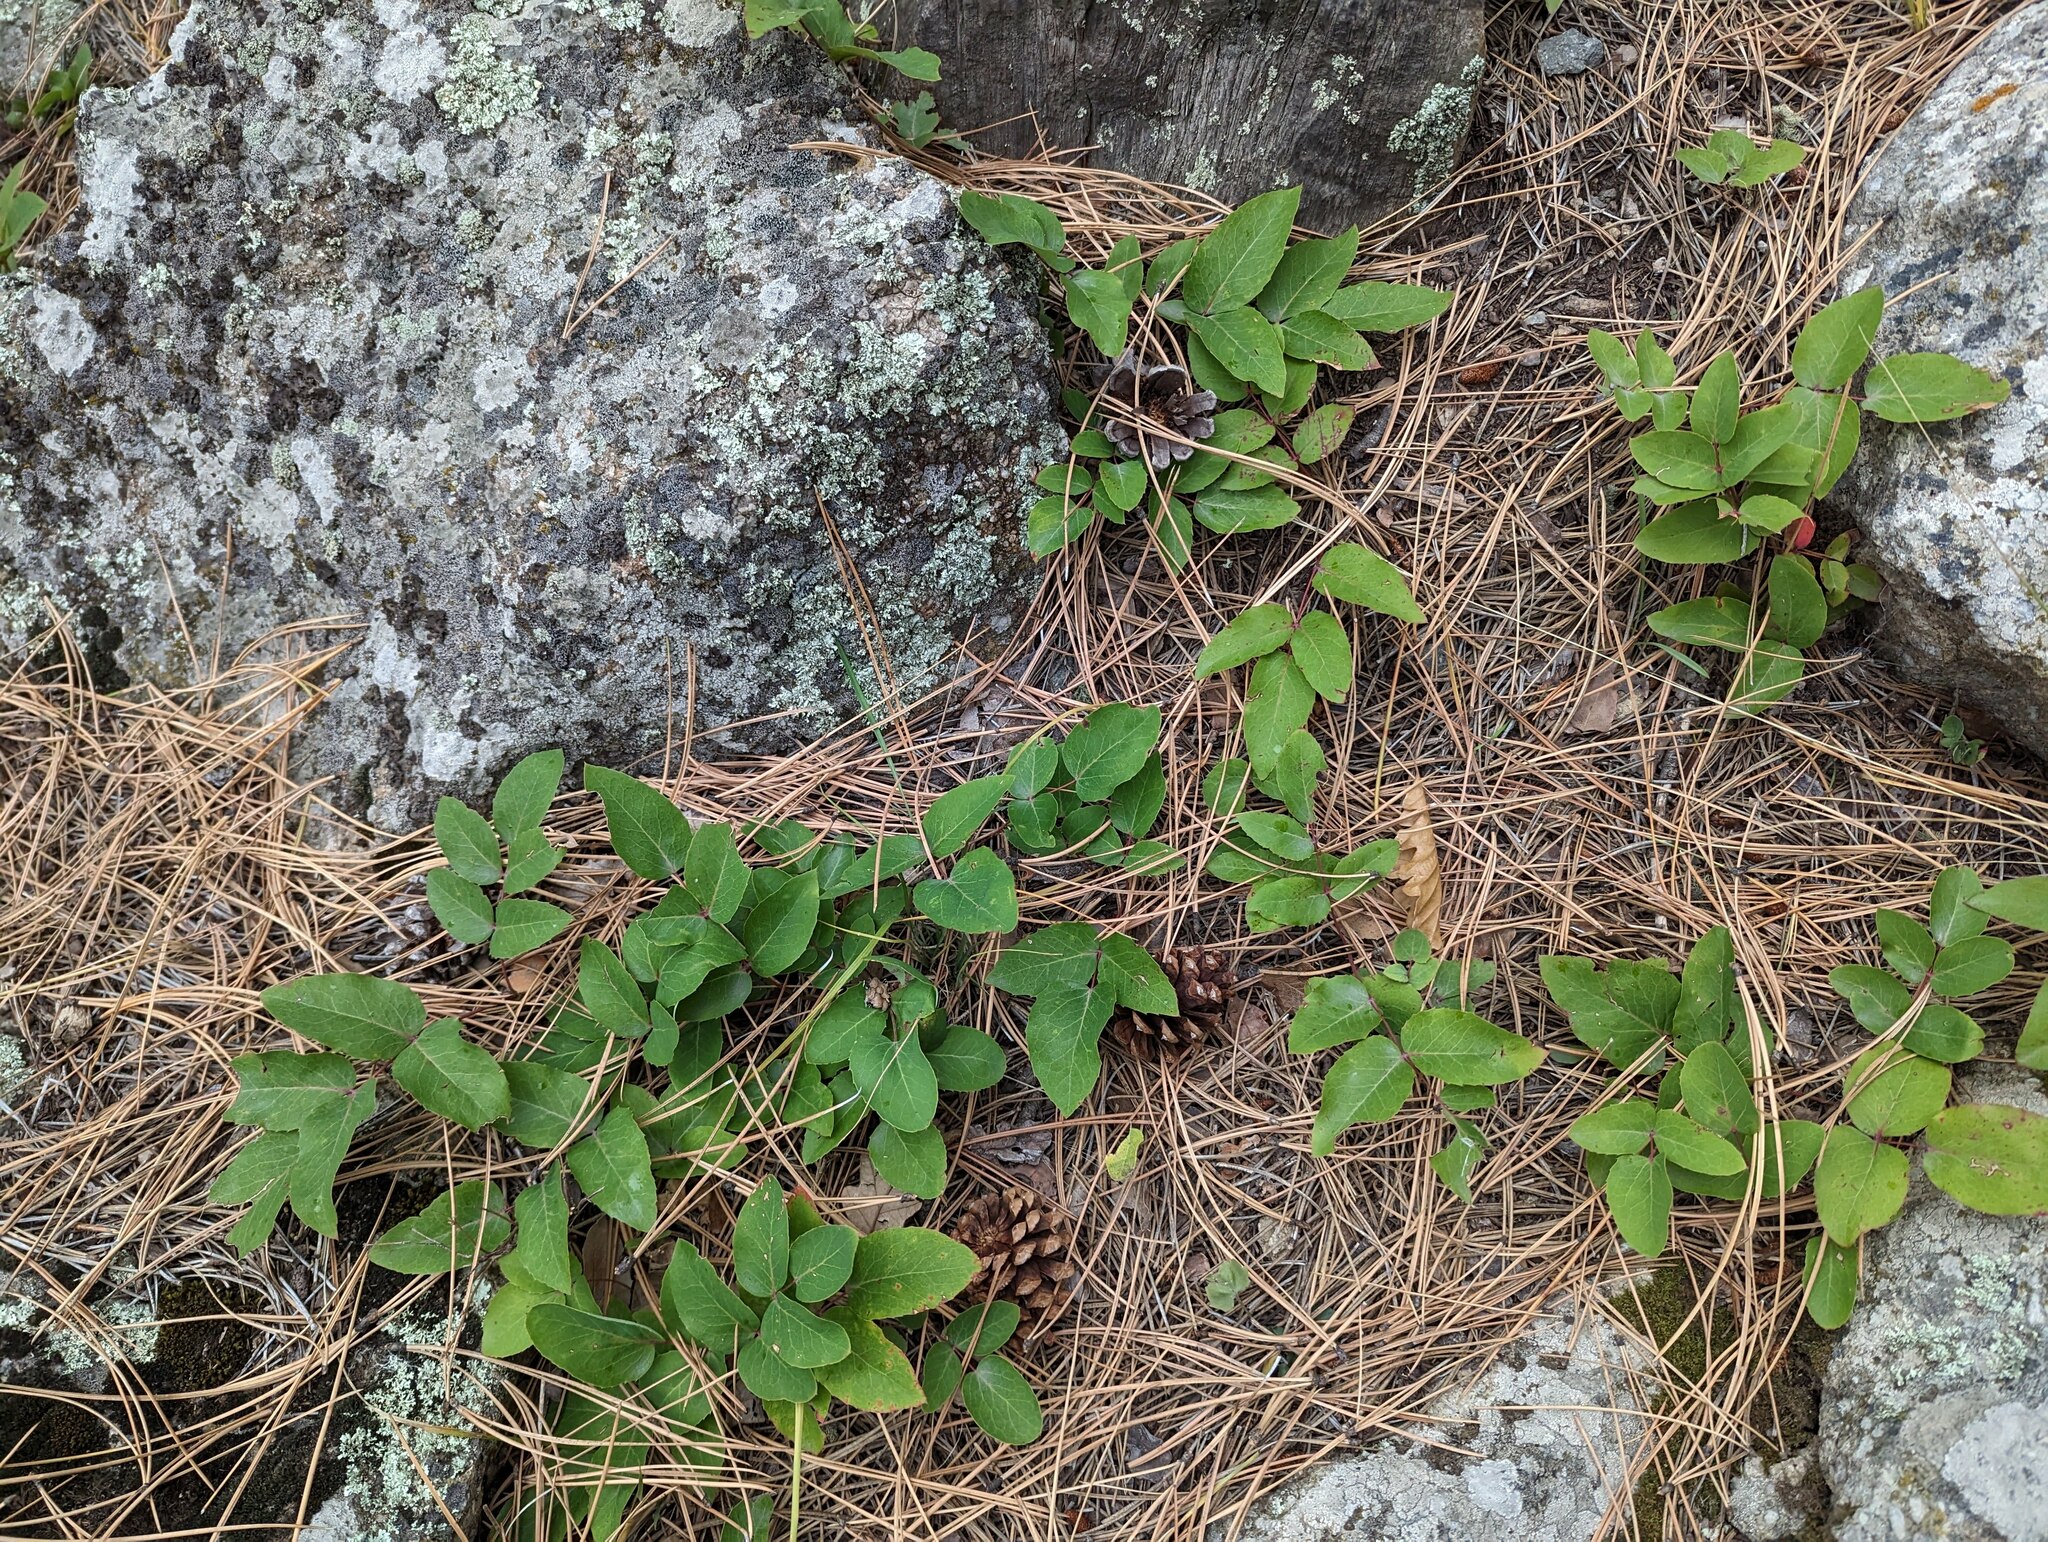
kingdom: Plantae
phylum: Tracheophyta
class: Magnoliopsida
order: Ranunculales
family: Berberidaceae
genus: Mahonia
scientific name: Mahonia repens
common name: Creeping oregon-grape
